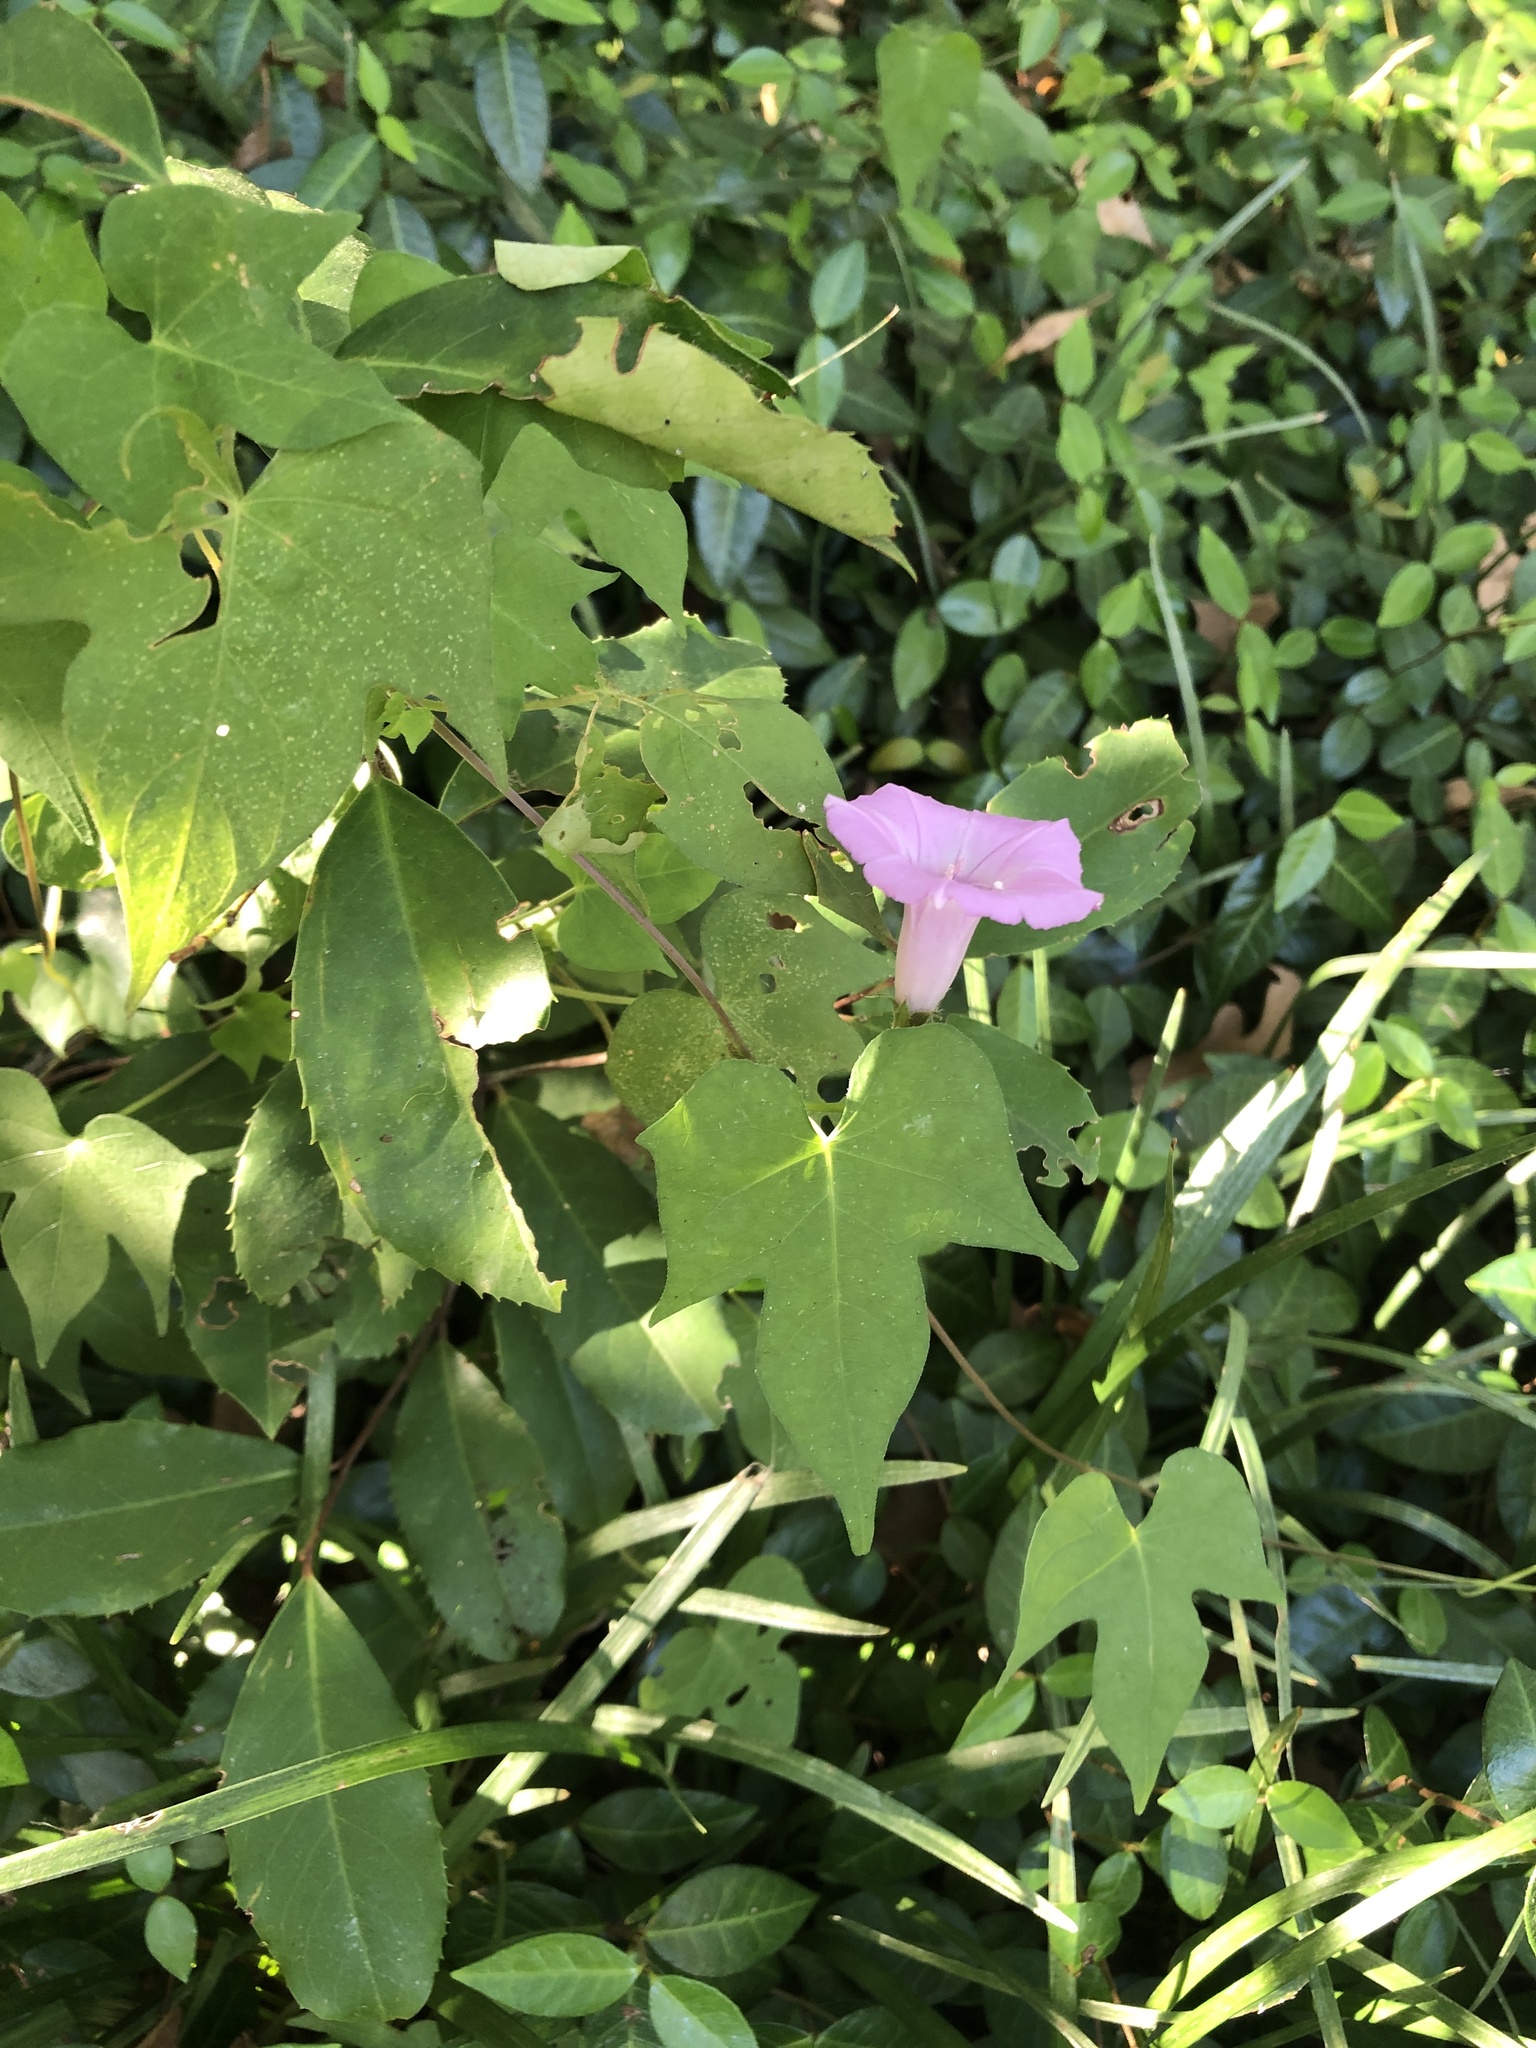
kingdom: Plantae
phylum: Tracheophyta
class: Magnoliopsida
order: Solanales
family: Convolvulaceae
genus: Ipomoea
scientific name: Ipomoea cordatotriloba
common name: Cotton morning glory
